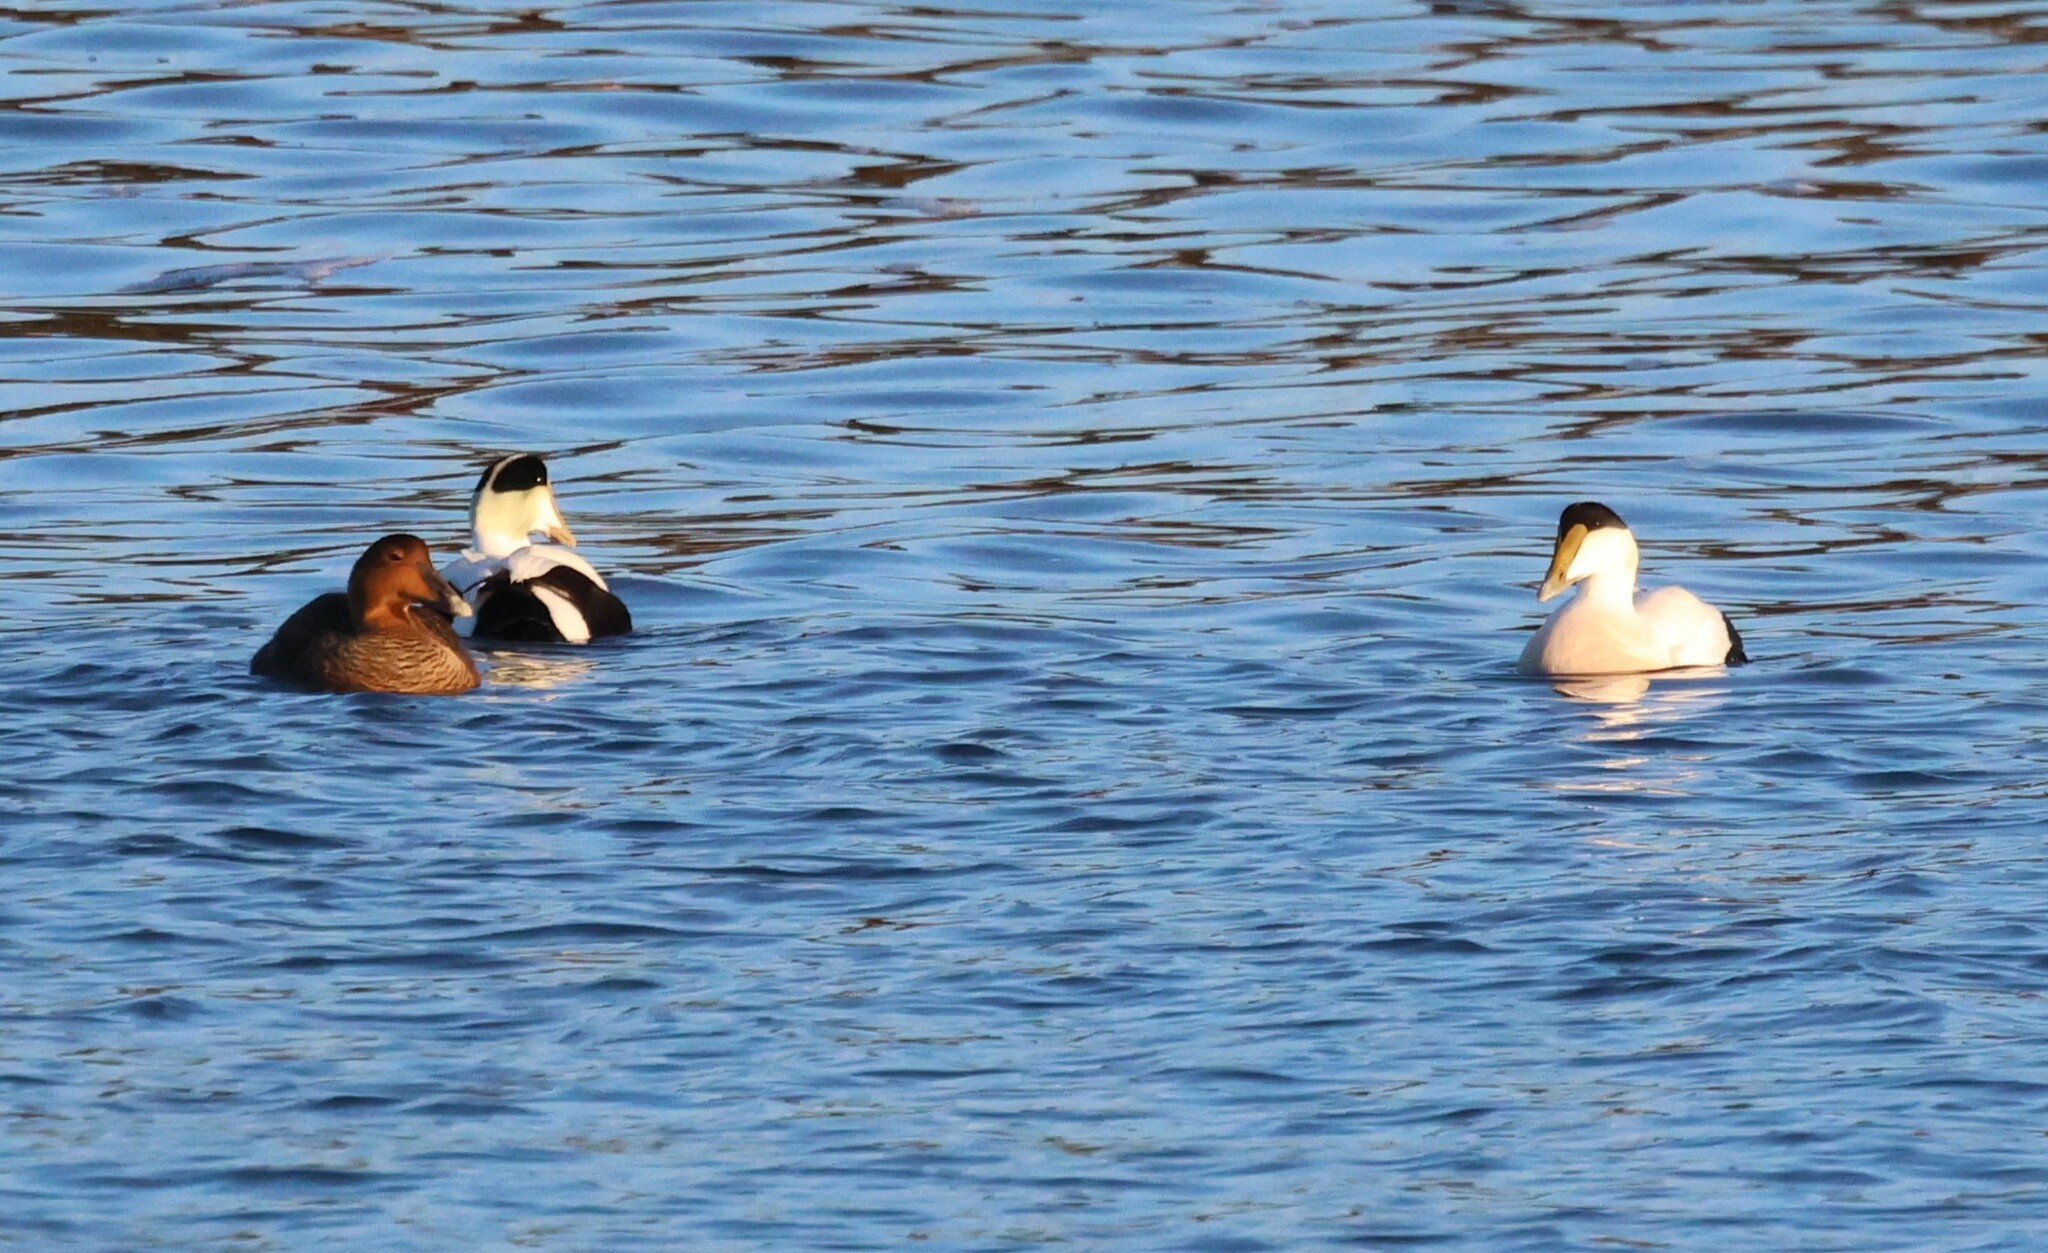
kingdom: Animalia
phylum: Chordata
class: Aves
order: Anseriformes
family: Anatidae
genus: Somateria
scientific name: Somateria mollissima
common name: Common eider
